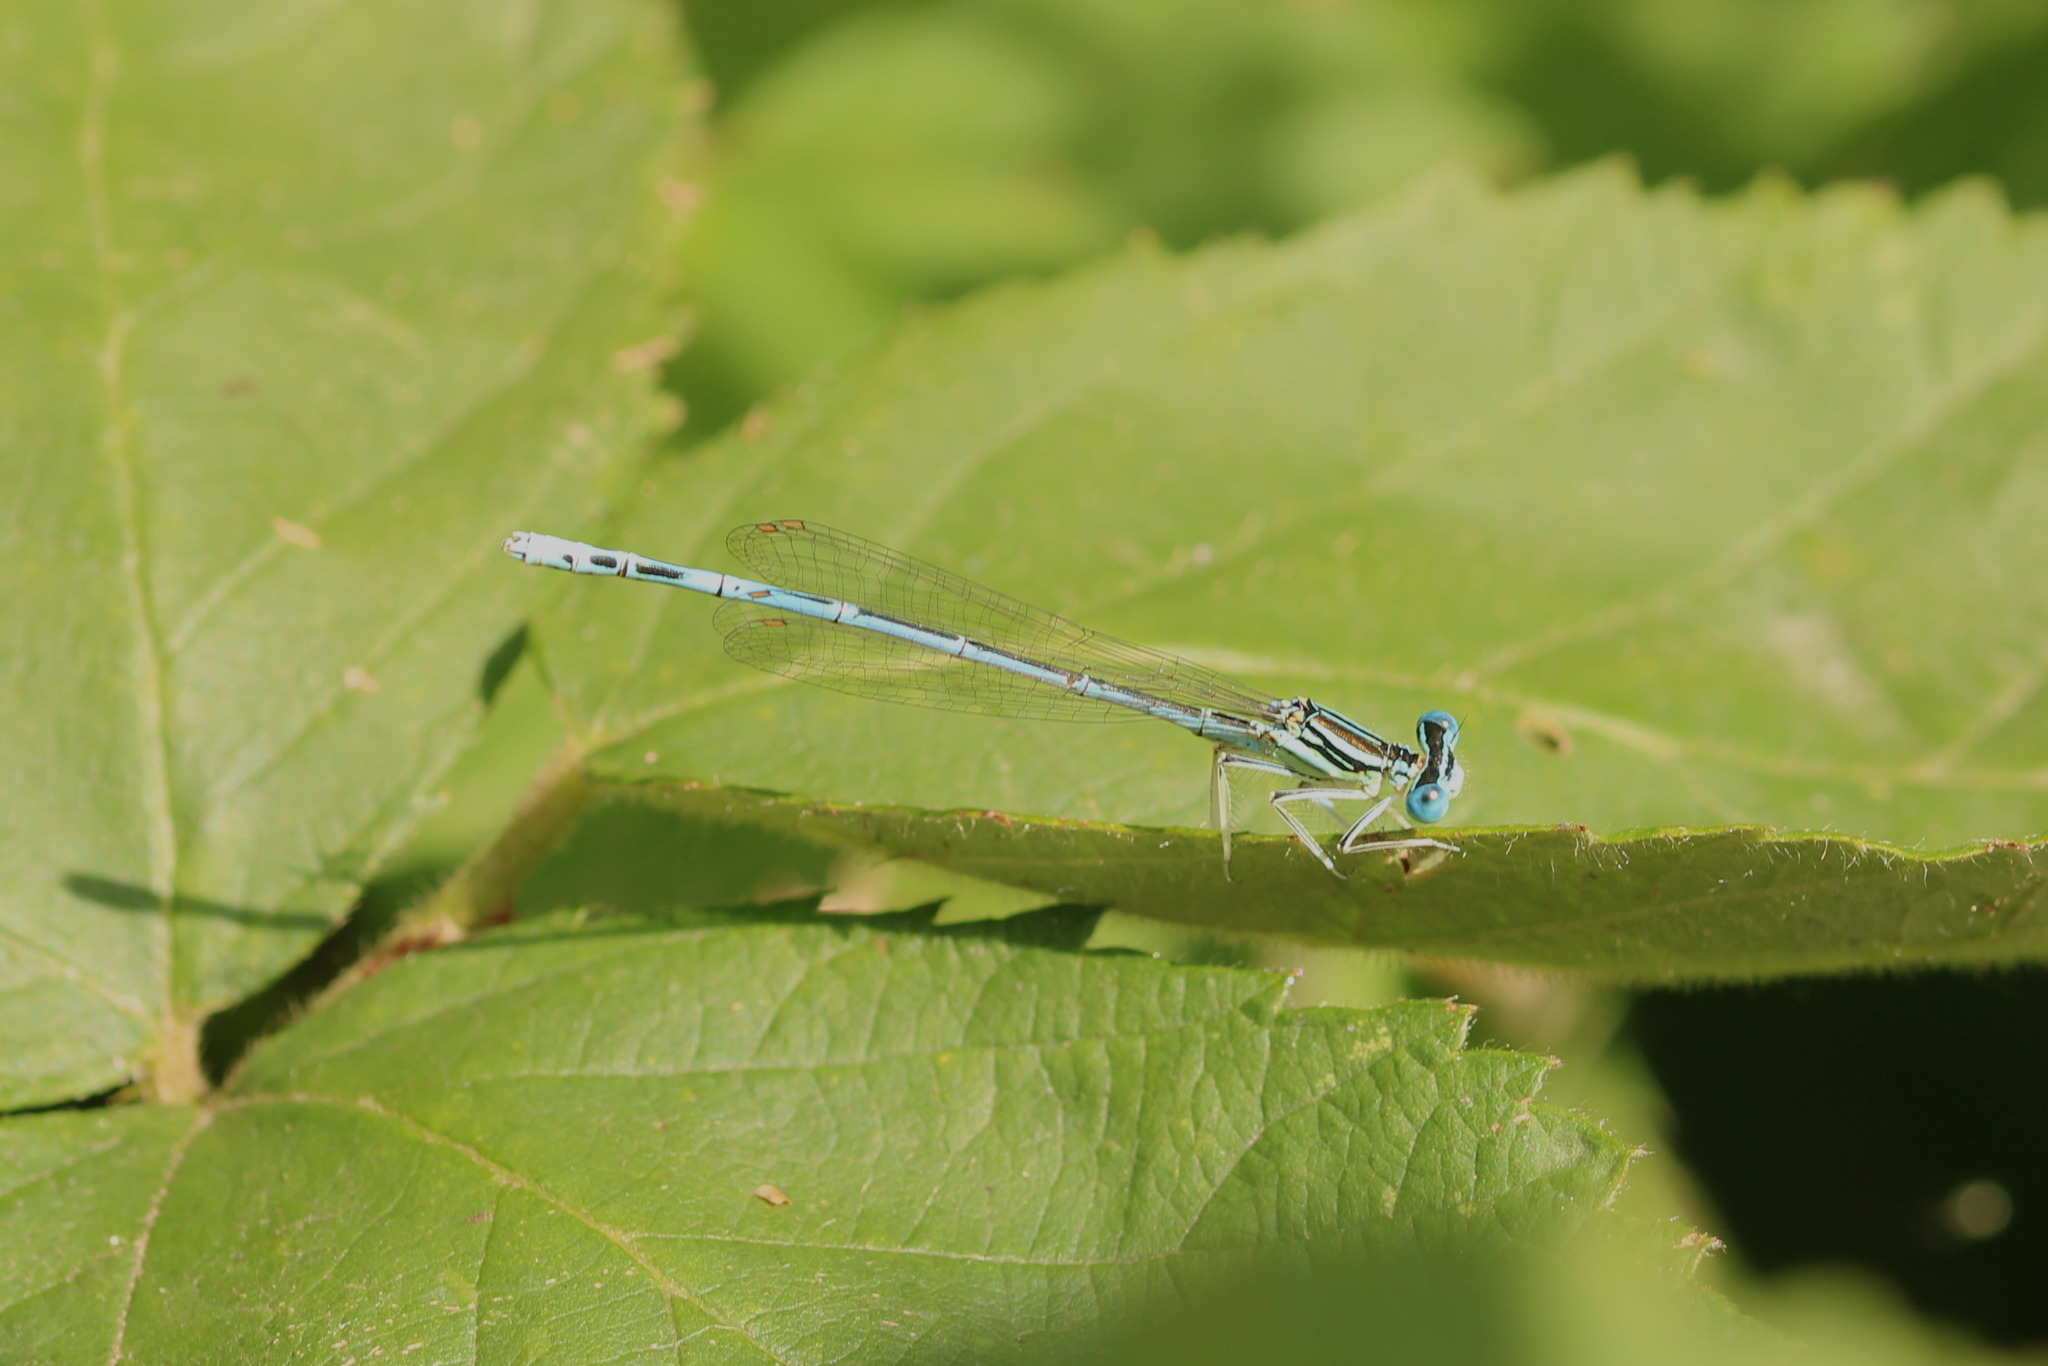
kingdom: Animalia
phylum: Arthropoda
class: Insecta
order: Odonata
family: Platycnemididae
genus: Platycnemis
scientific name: Platycnemis pennipes
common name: White-legged damselfly
